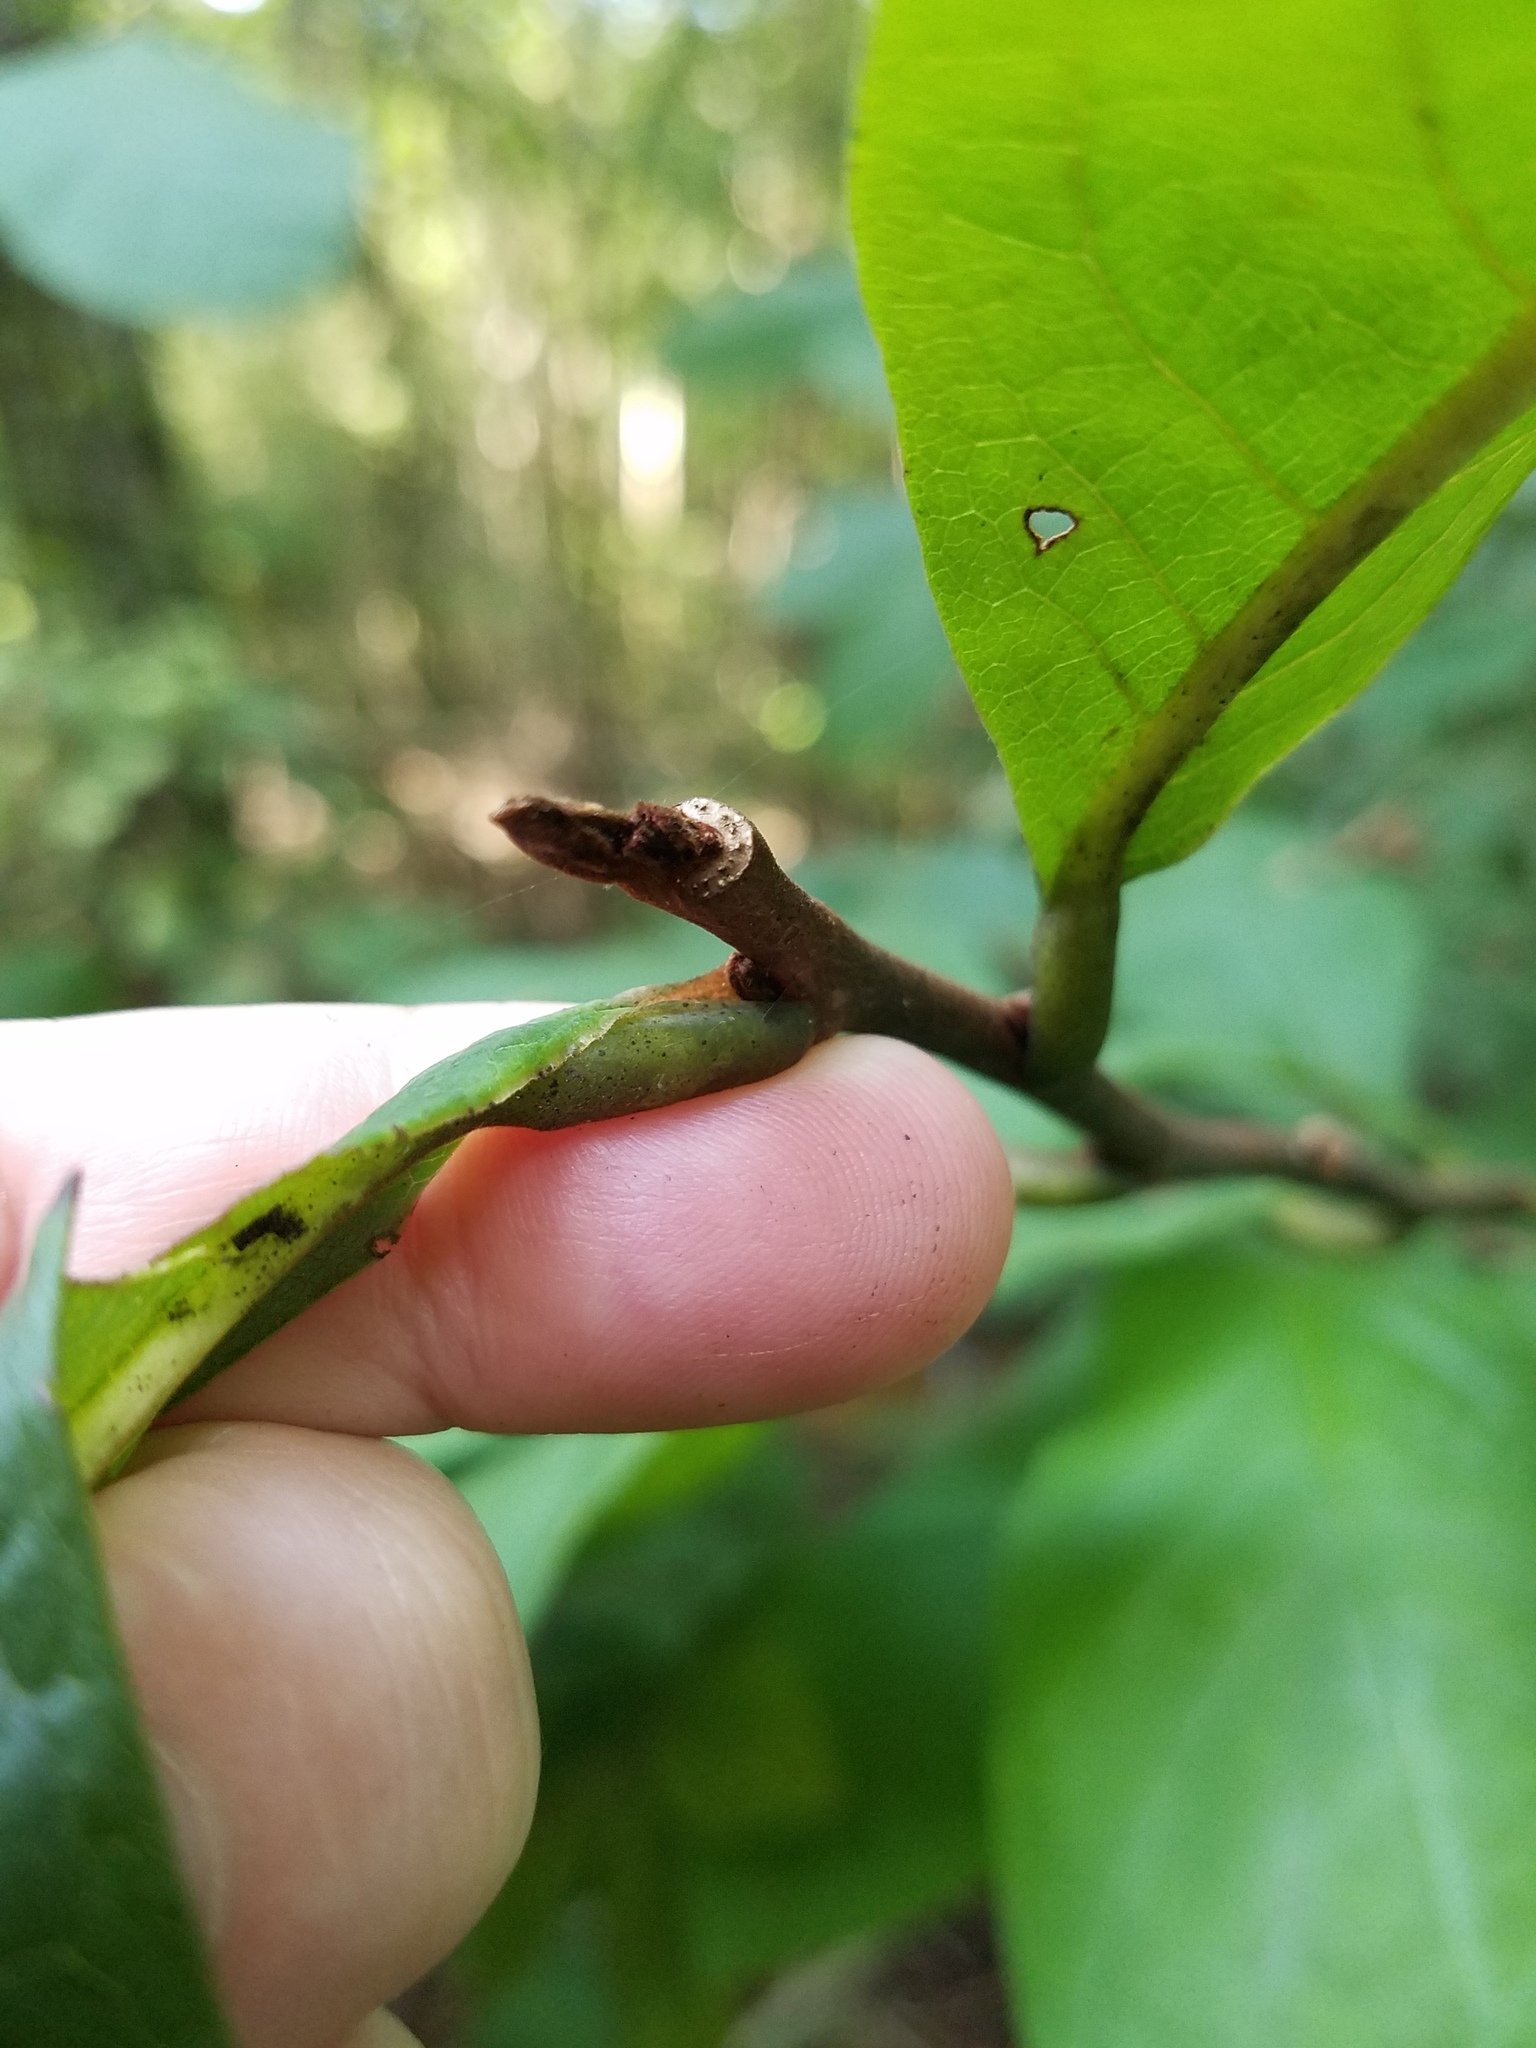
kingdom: Plantae
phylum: Tracheophyta
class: Magnoliopsida
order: Magnoliales
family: Annonaceae
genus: Asimina
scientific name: Asimina triloba
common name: Dog-banana
